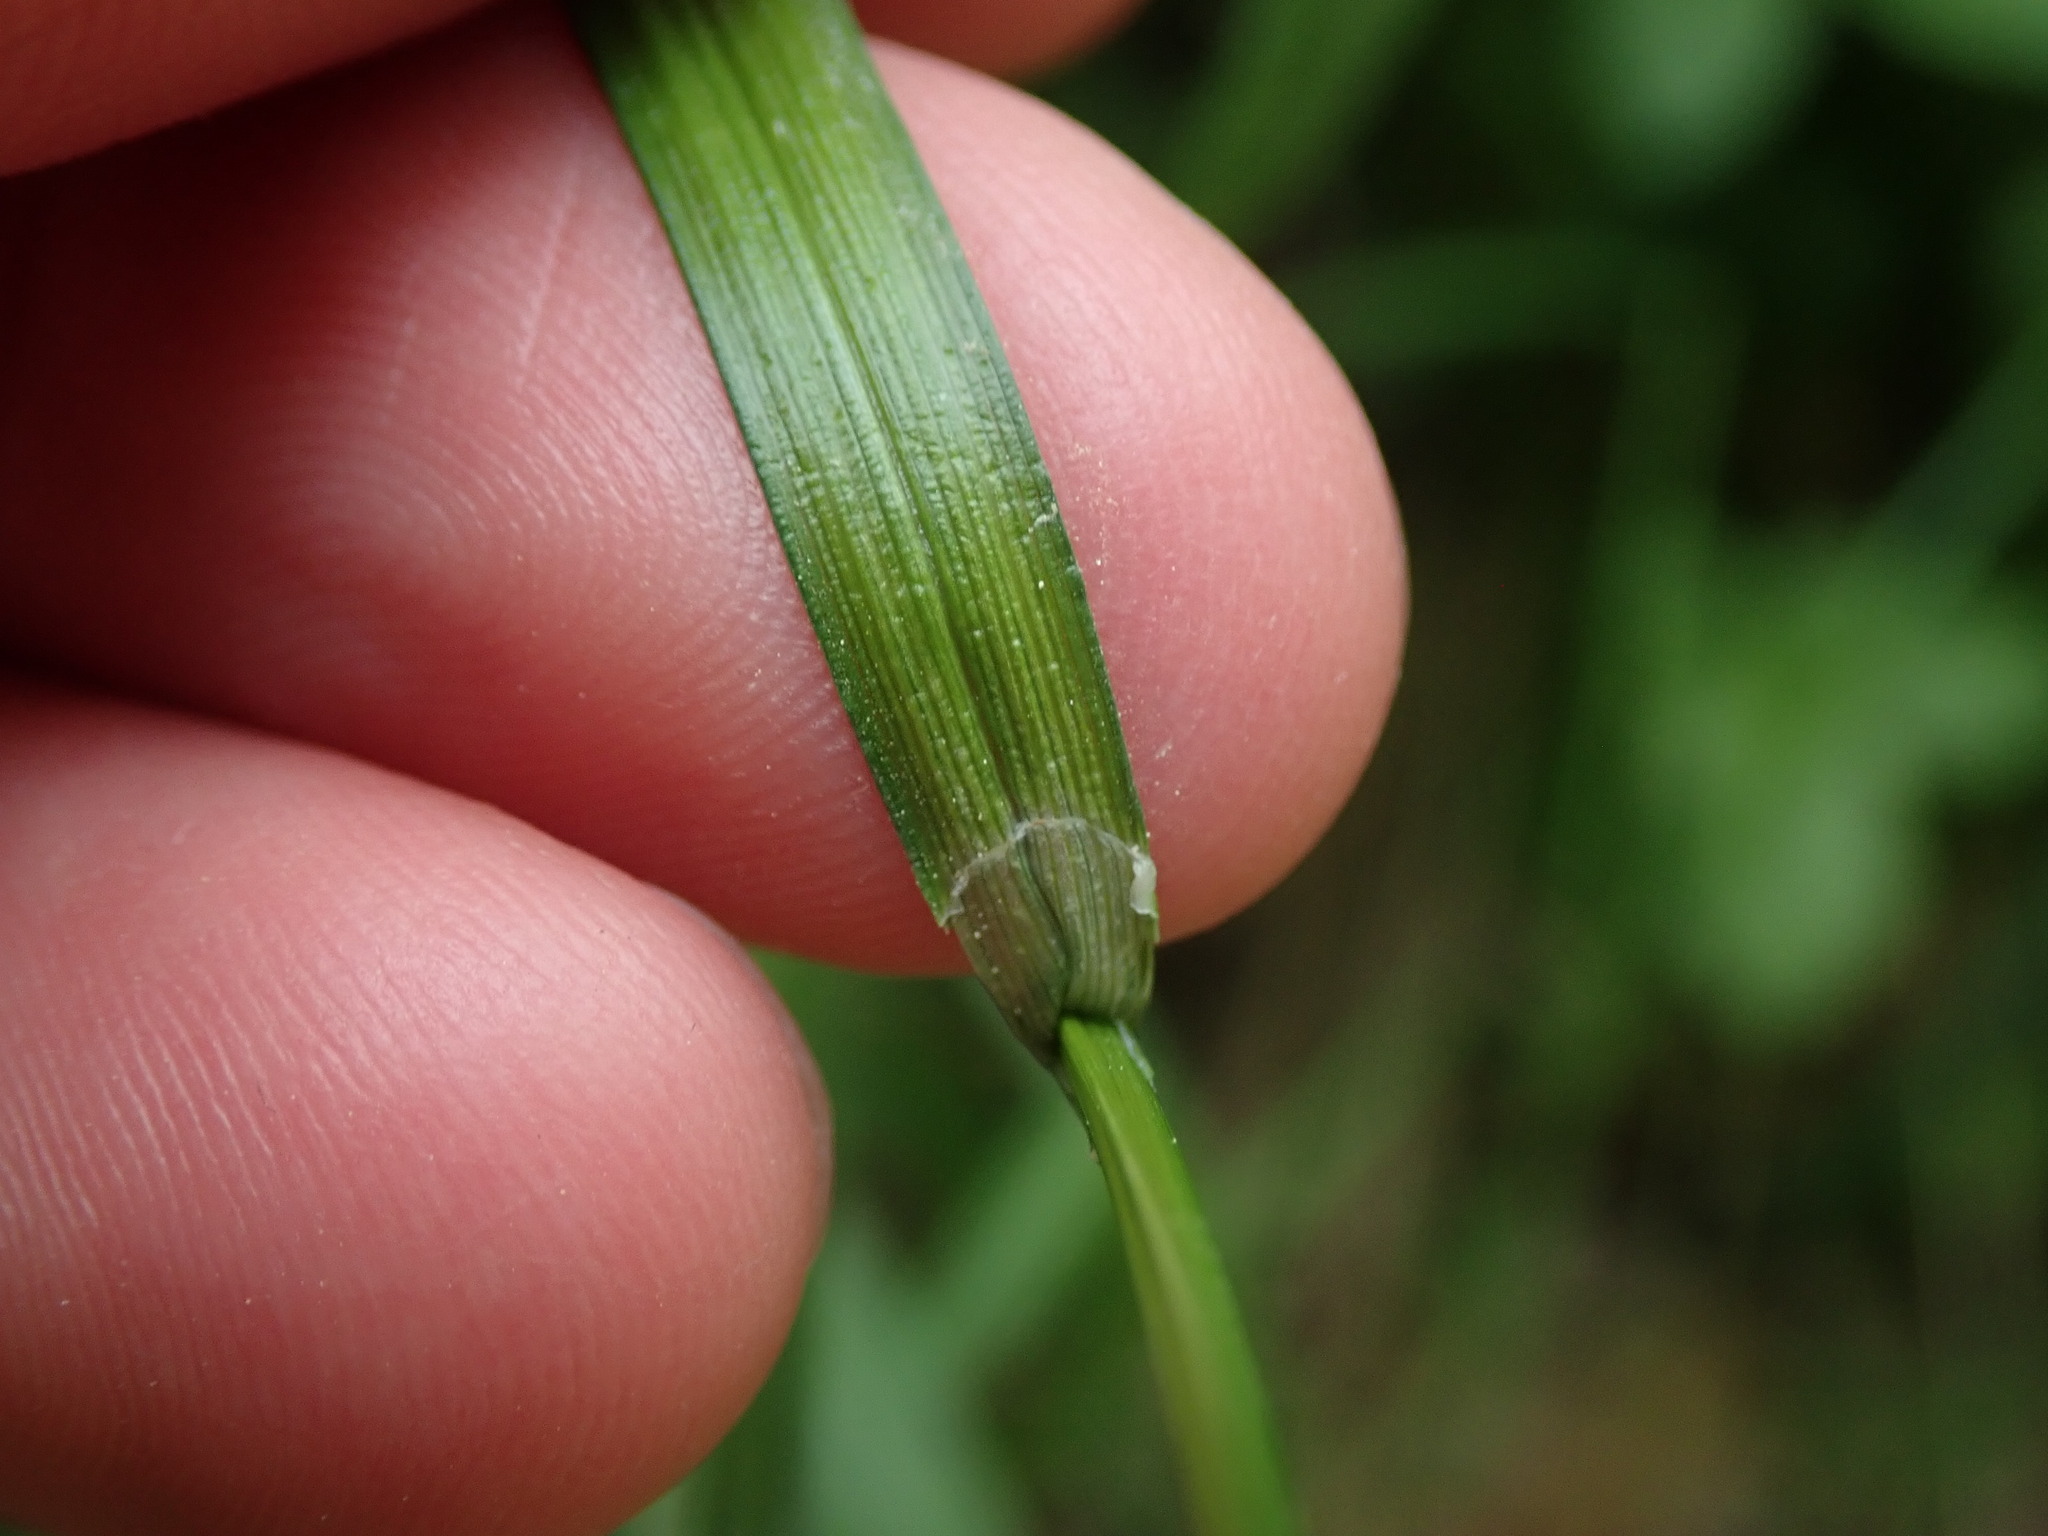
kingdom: Plantae
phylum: Tracheophyta
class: Liliopsida
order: Poales
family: Cyperaceae
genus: Carex
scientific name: Carex sylvatica
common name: Wood-sedge
